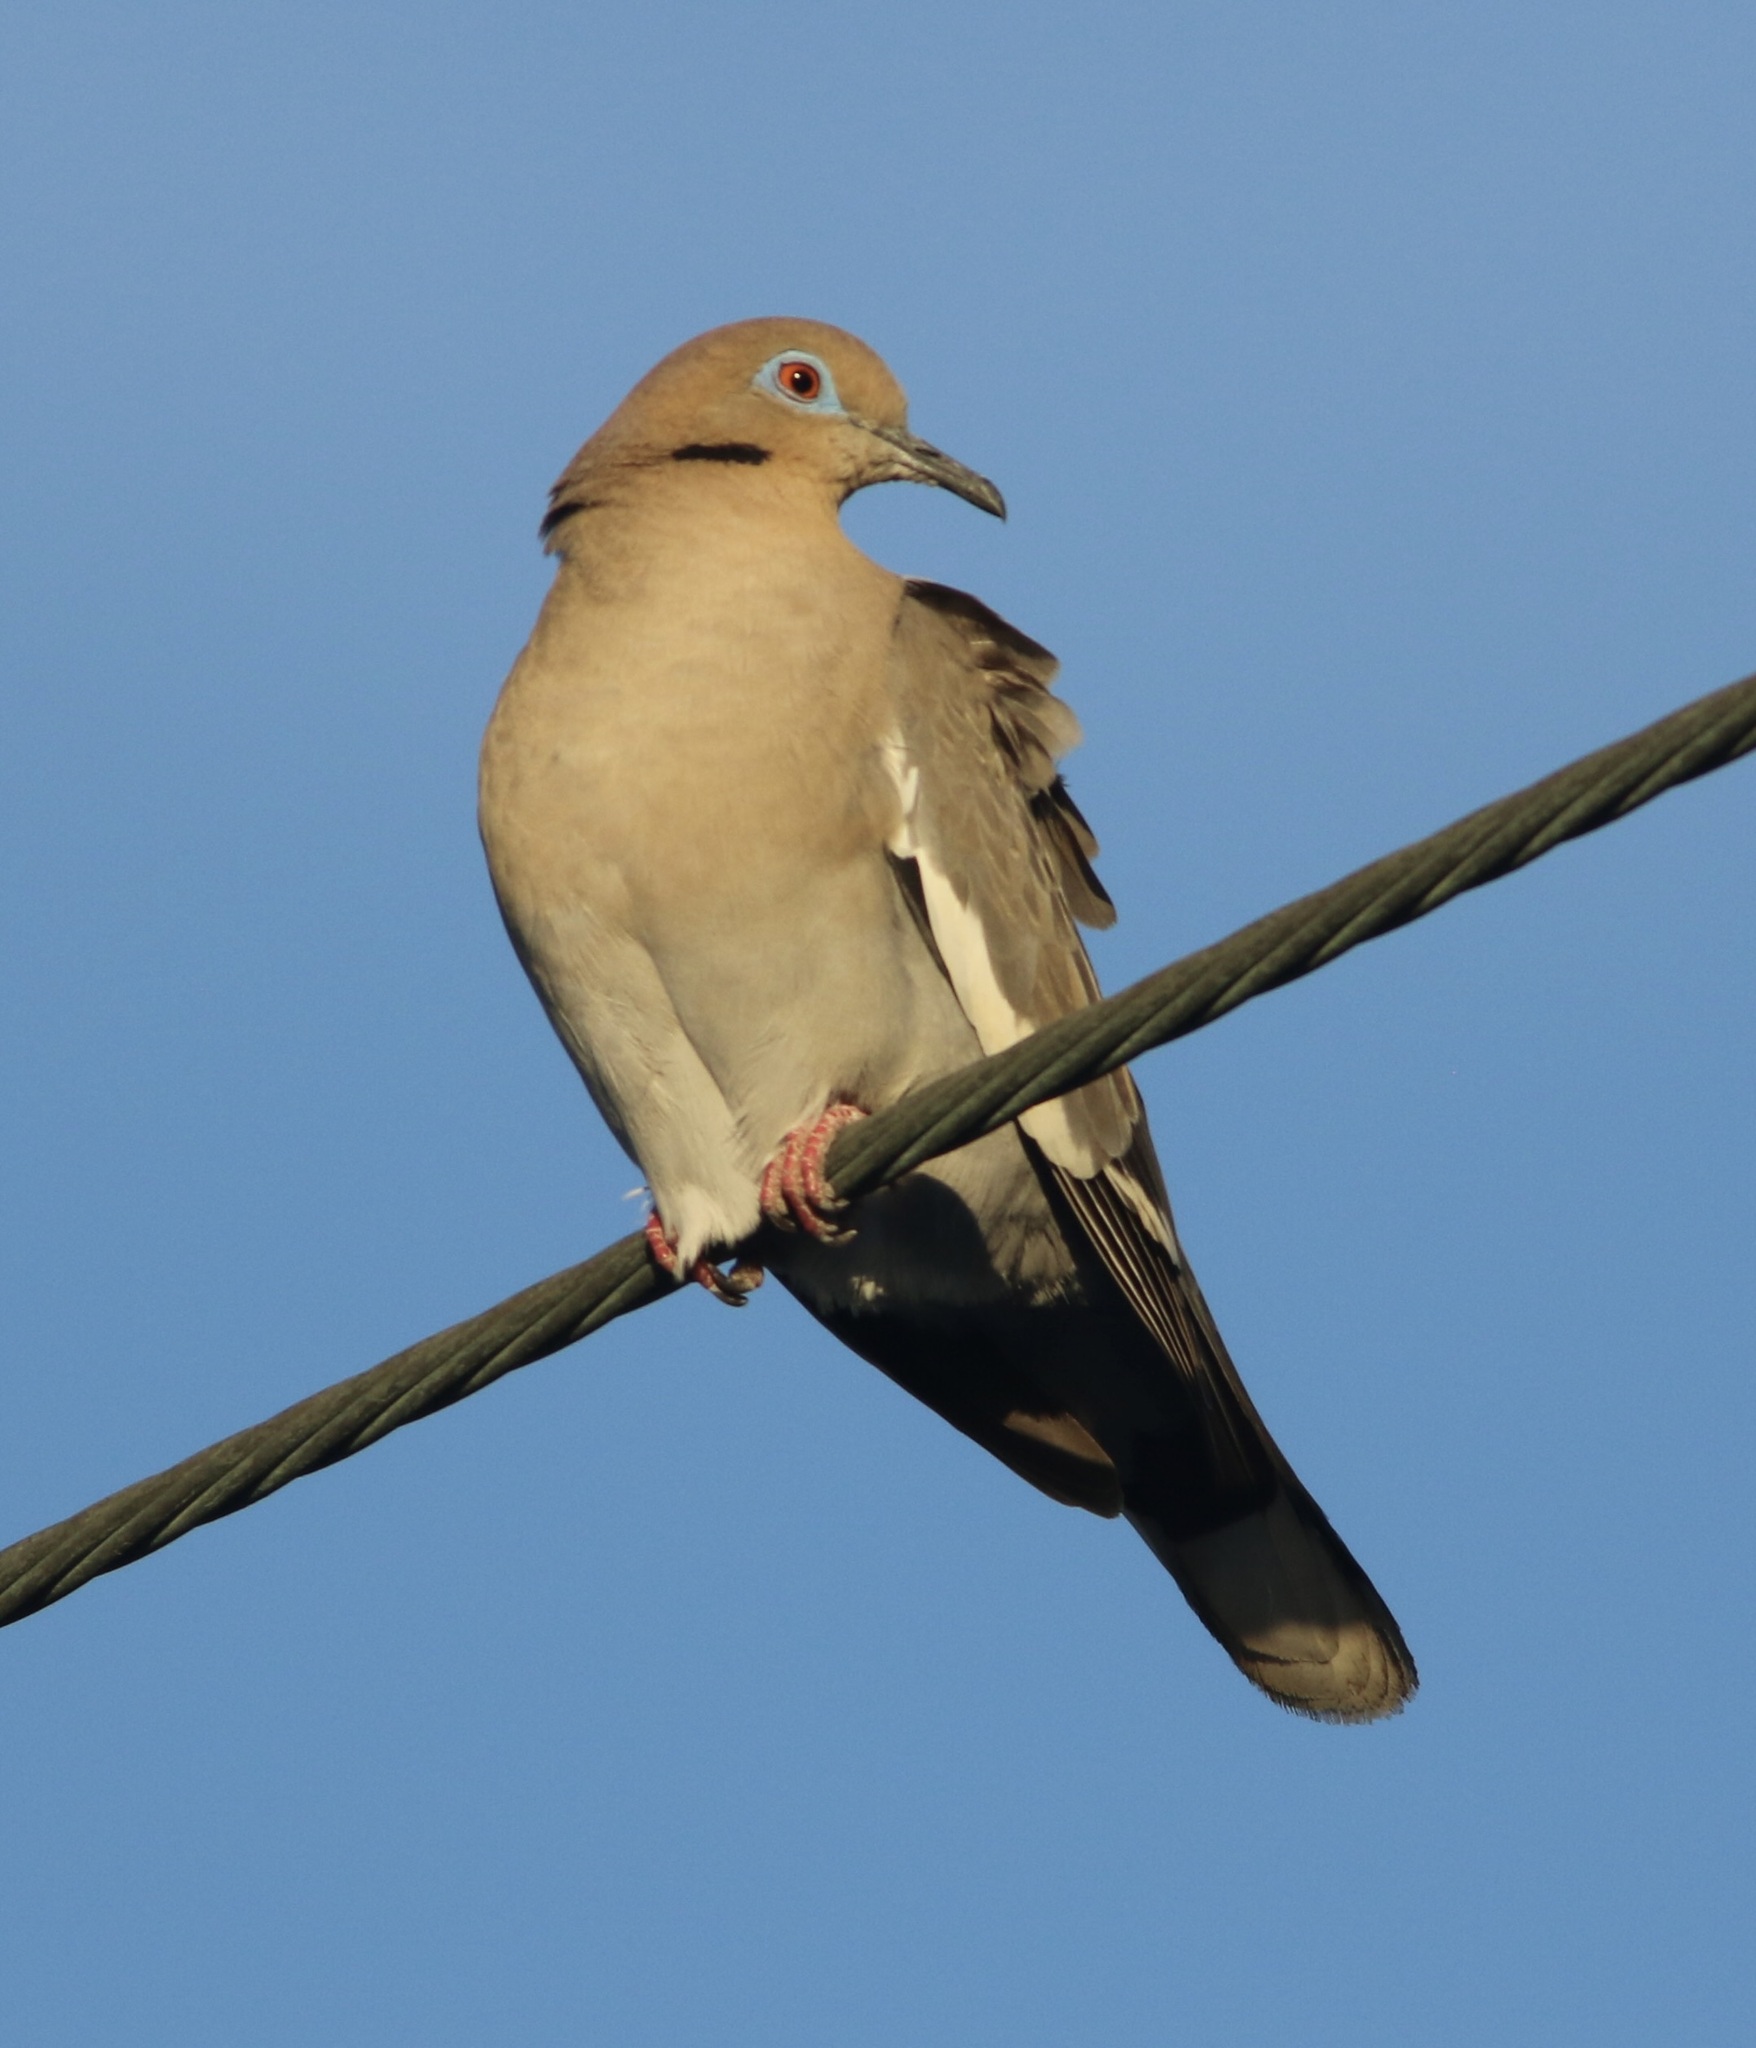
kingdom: Animalia
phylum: Chordata
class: Aves
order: Columbiformes
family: Columbidae
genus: Zenaida
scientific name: Zenaida asiatica
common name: White-winged dove
